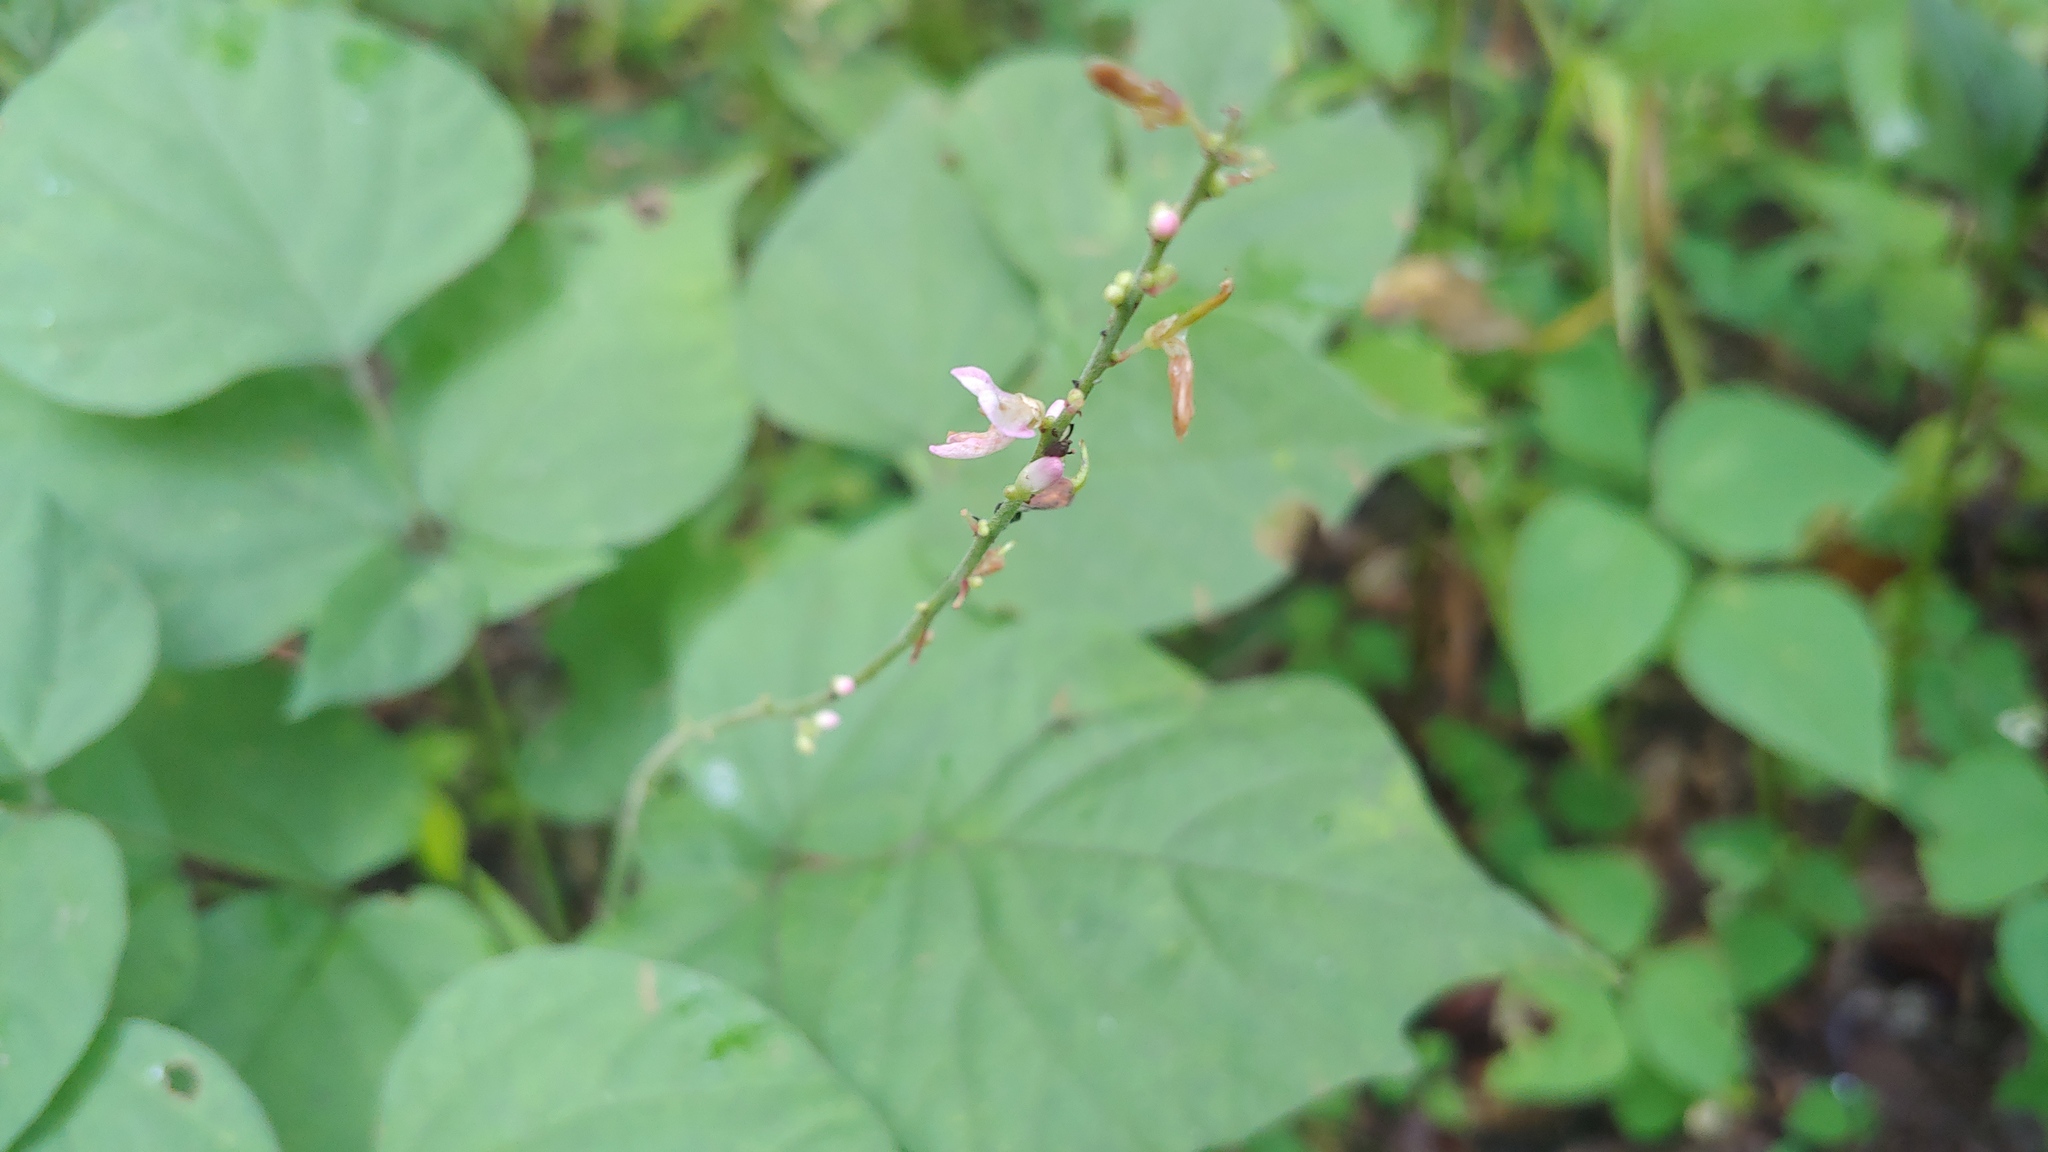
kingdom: Plantae
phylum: Tracheophyta
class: Magnoliopsida
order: Fabales
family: Fabaceae
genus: Hylodesmum
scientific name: Hylodesmum glutinosum
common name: Clustered-leaved tick-trefoil
